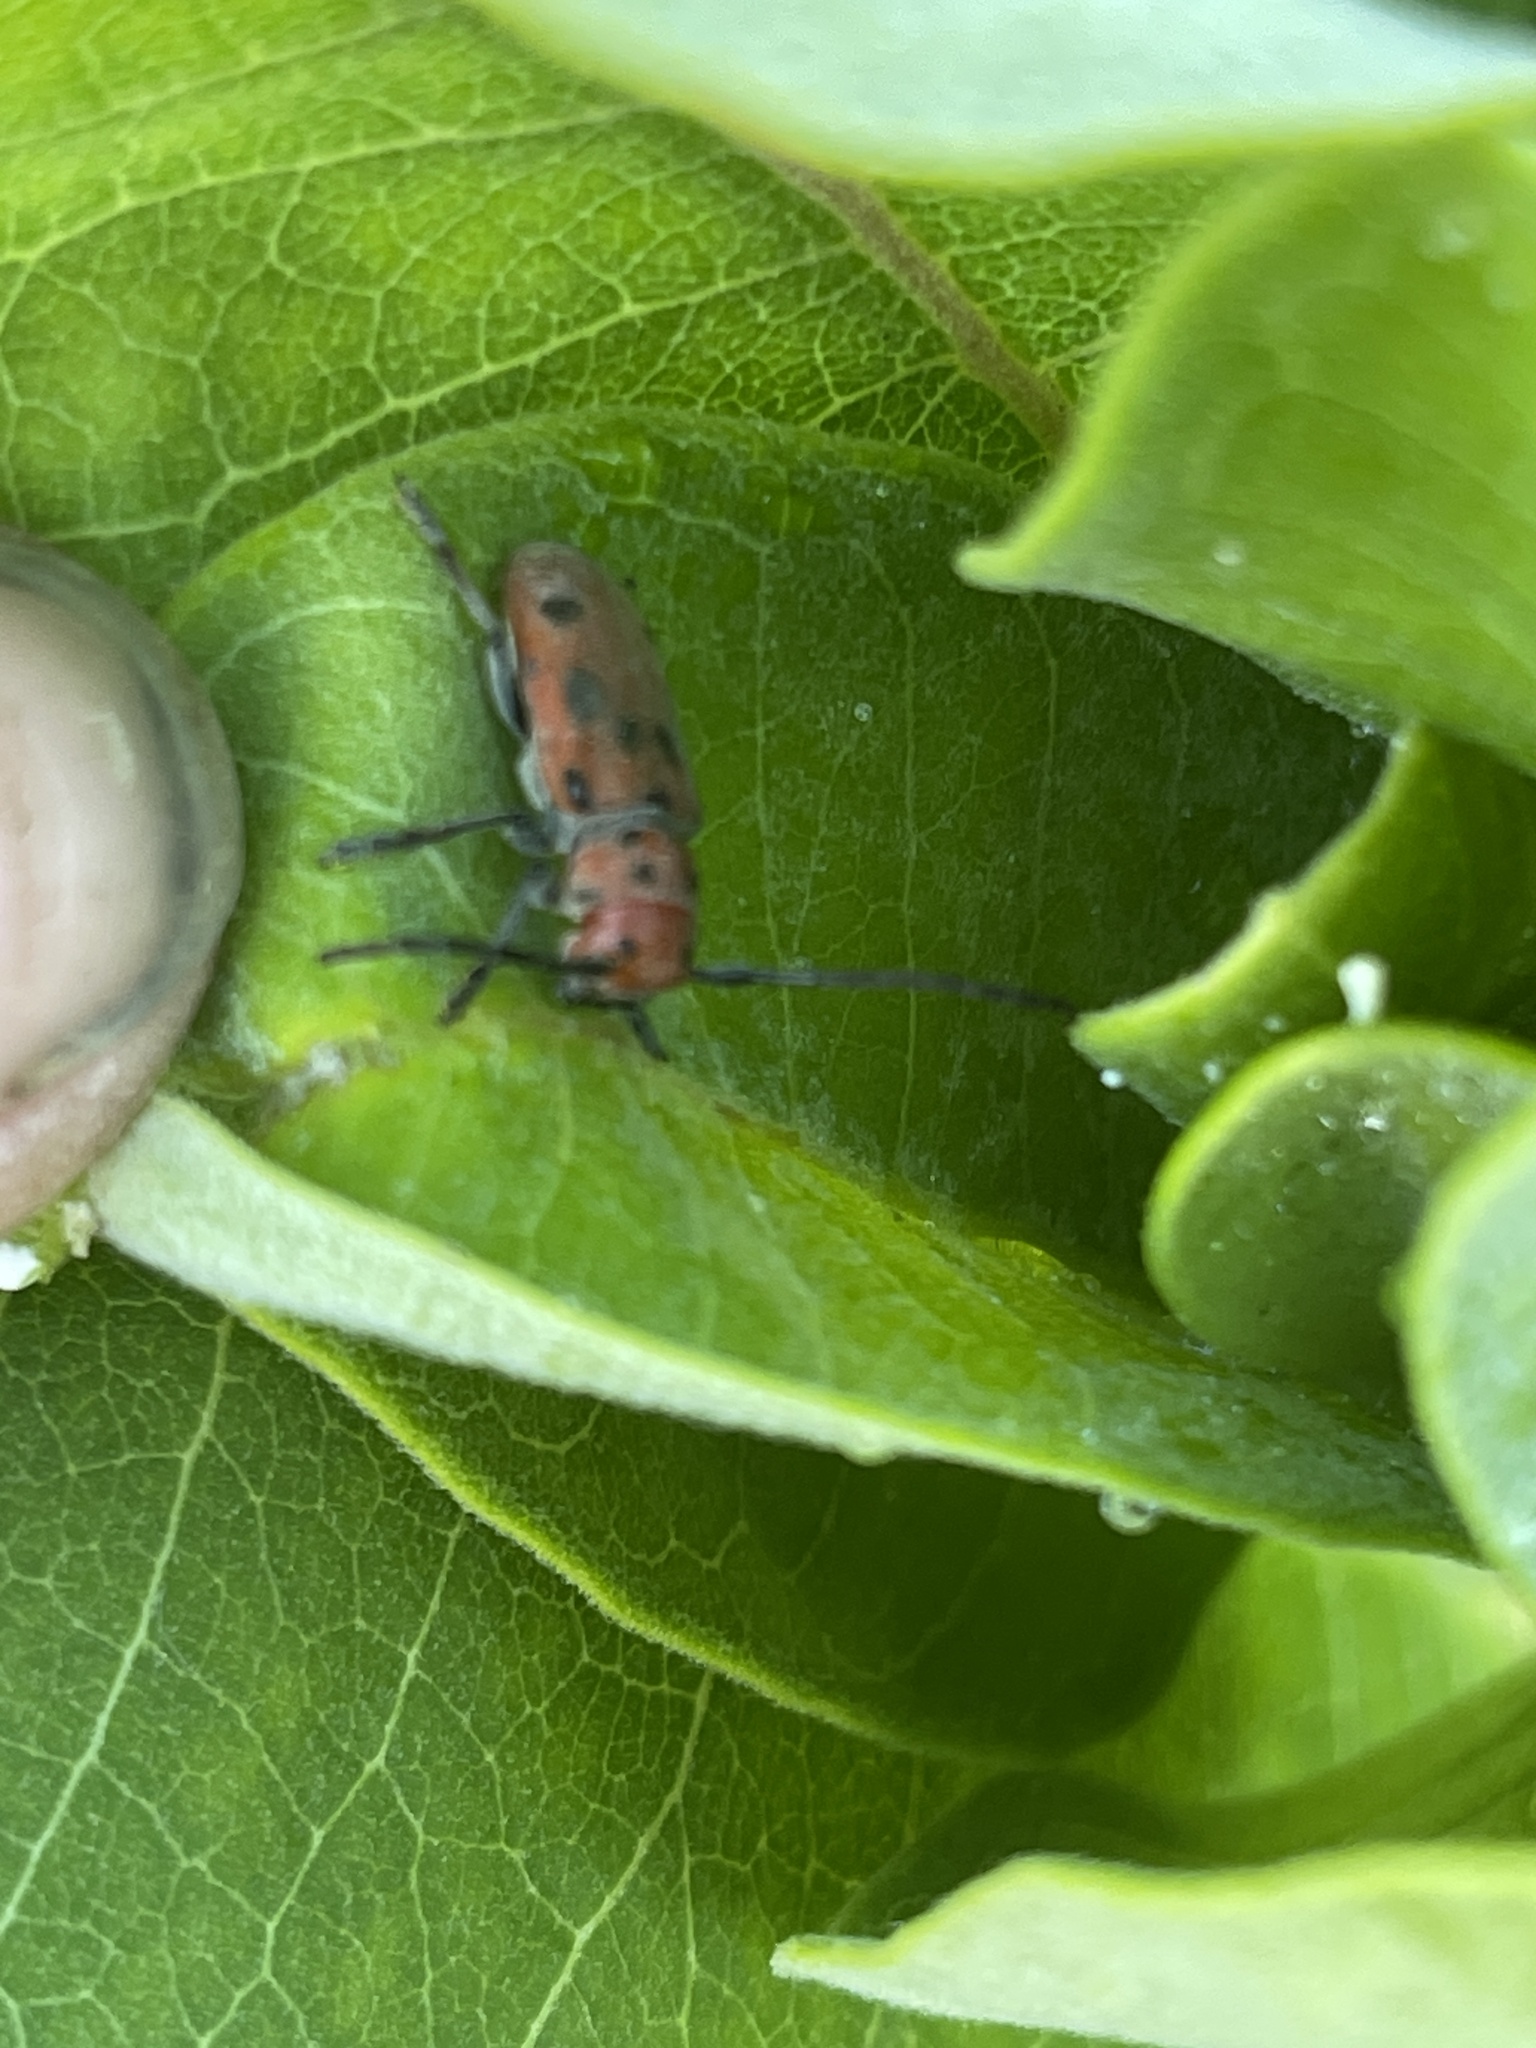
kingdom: Animalia
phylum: Arthropoda
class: Insecta
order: Coleoptera
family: Cerambycidae
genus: Tetraopes
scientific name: Tetraopes tetrophthalmus
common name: Red milkweed beetle
